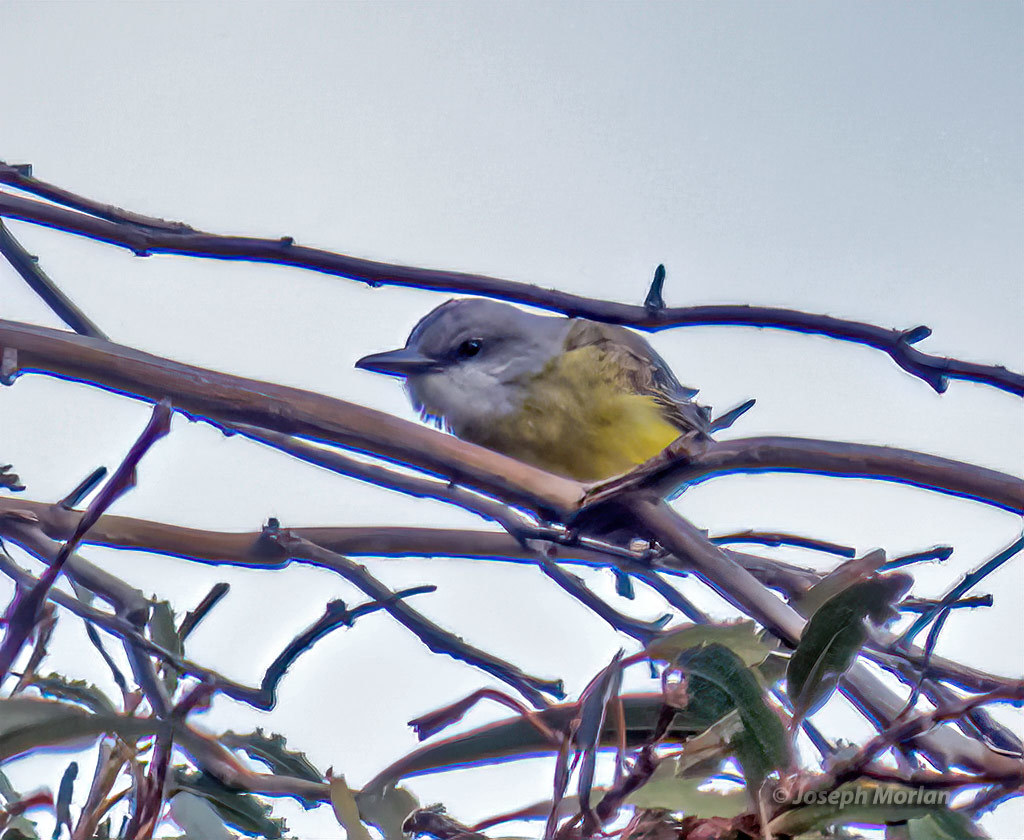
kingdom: Animalia
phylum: Chordata
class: Aves
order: Passeriformes
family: Tyrannidae
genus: Tyrannus
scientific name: Tyrannus melancholicus
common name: Tropical kingbird
